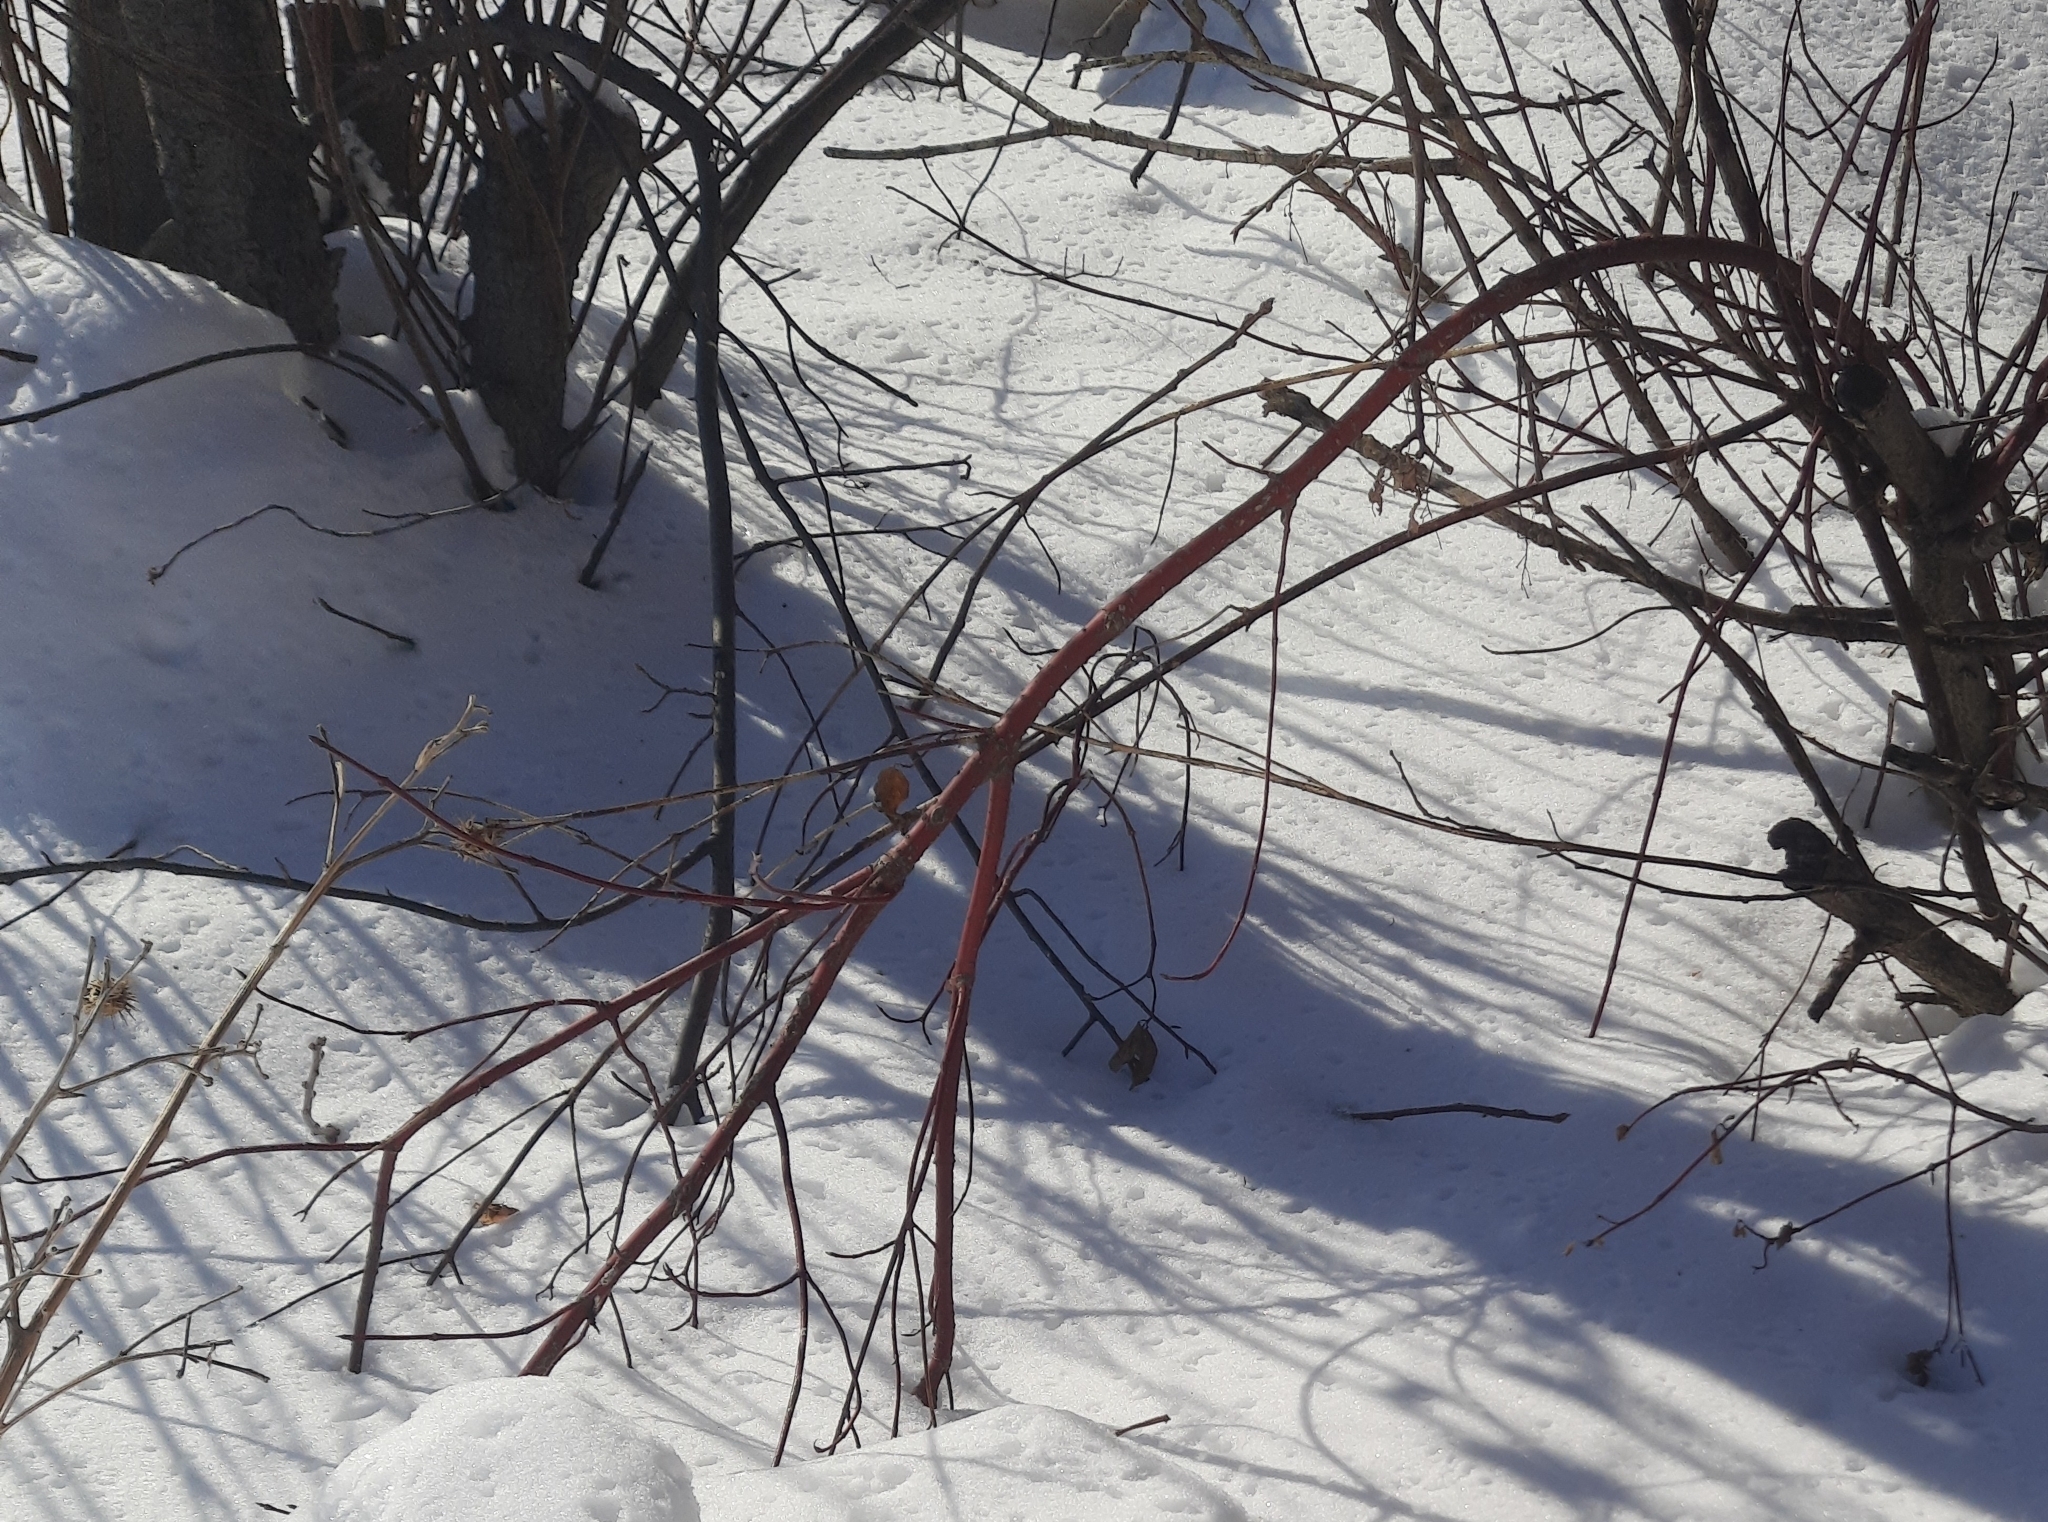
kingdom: Plantae
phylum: Tracheophyta
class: Magnoliopsida
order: Cornales
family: Cornaceae
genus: Cornus
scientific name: Cornus alba
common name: White dogwood
